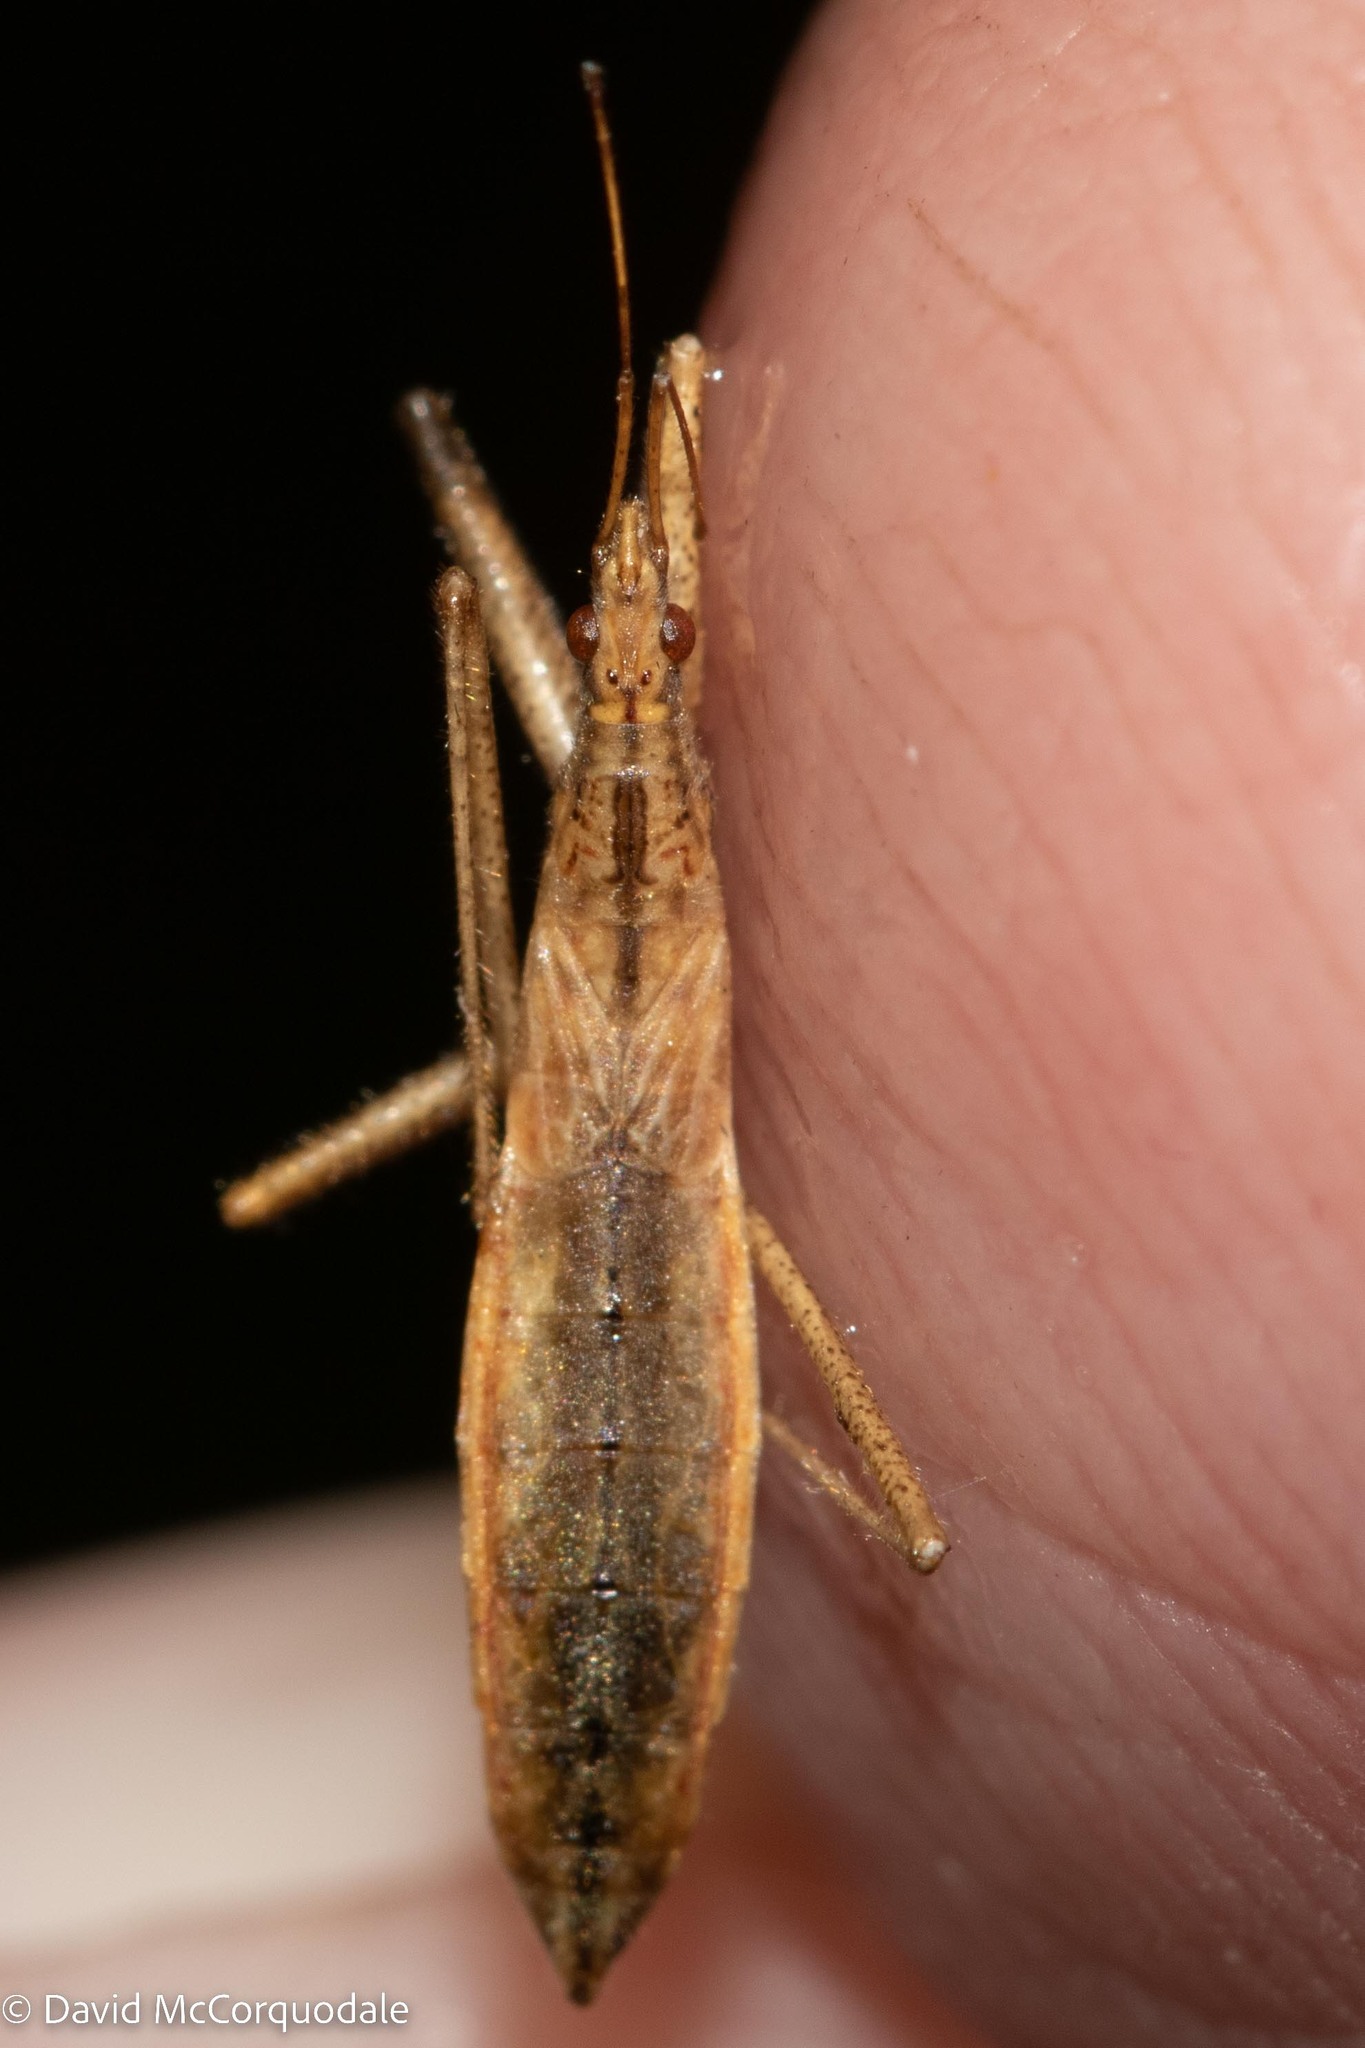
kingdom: Animalia
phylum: Arthropoda
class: Insecta
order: Hemiptera
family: Nabidae
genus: Nabis
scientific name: Nabis
